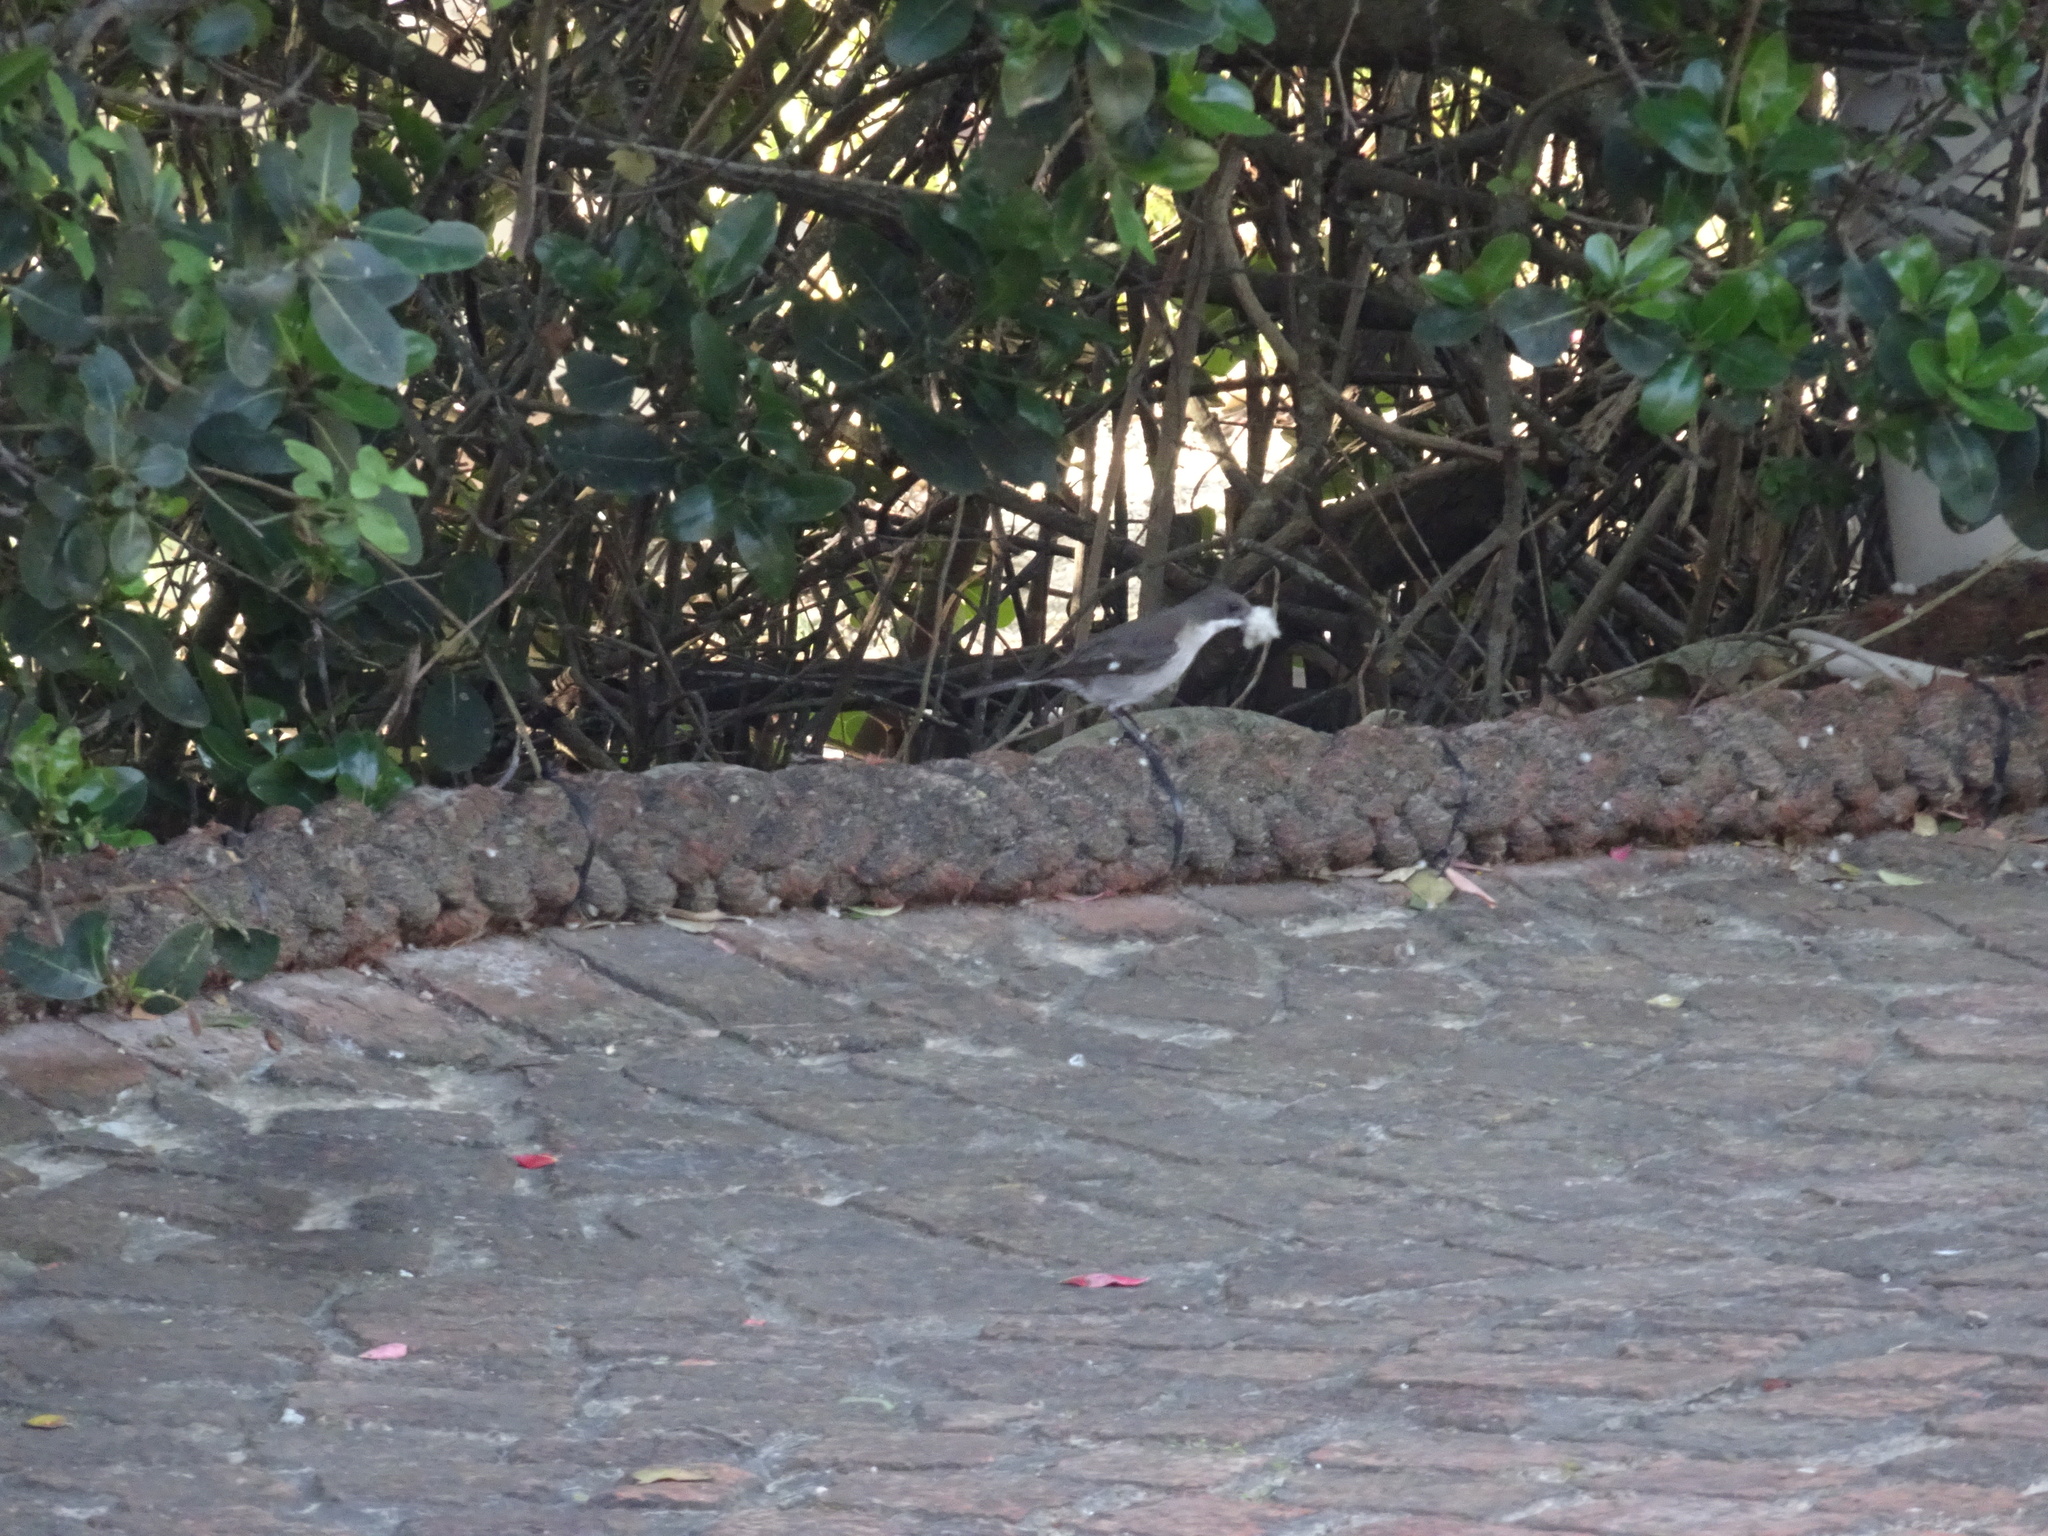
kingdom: Animalia
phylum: Chordata
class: Aves
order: Passeriformes
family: Muscicapidae
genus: Sigelus
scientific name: Sigelus silens
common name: Fiscal flycatcher
